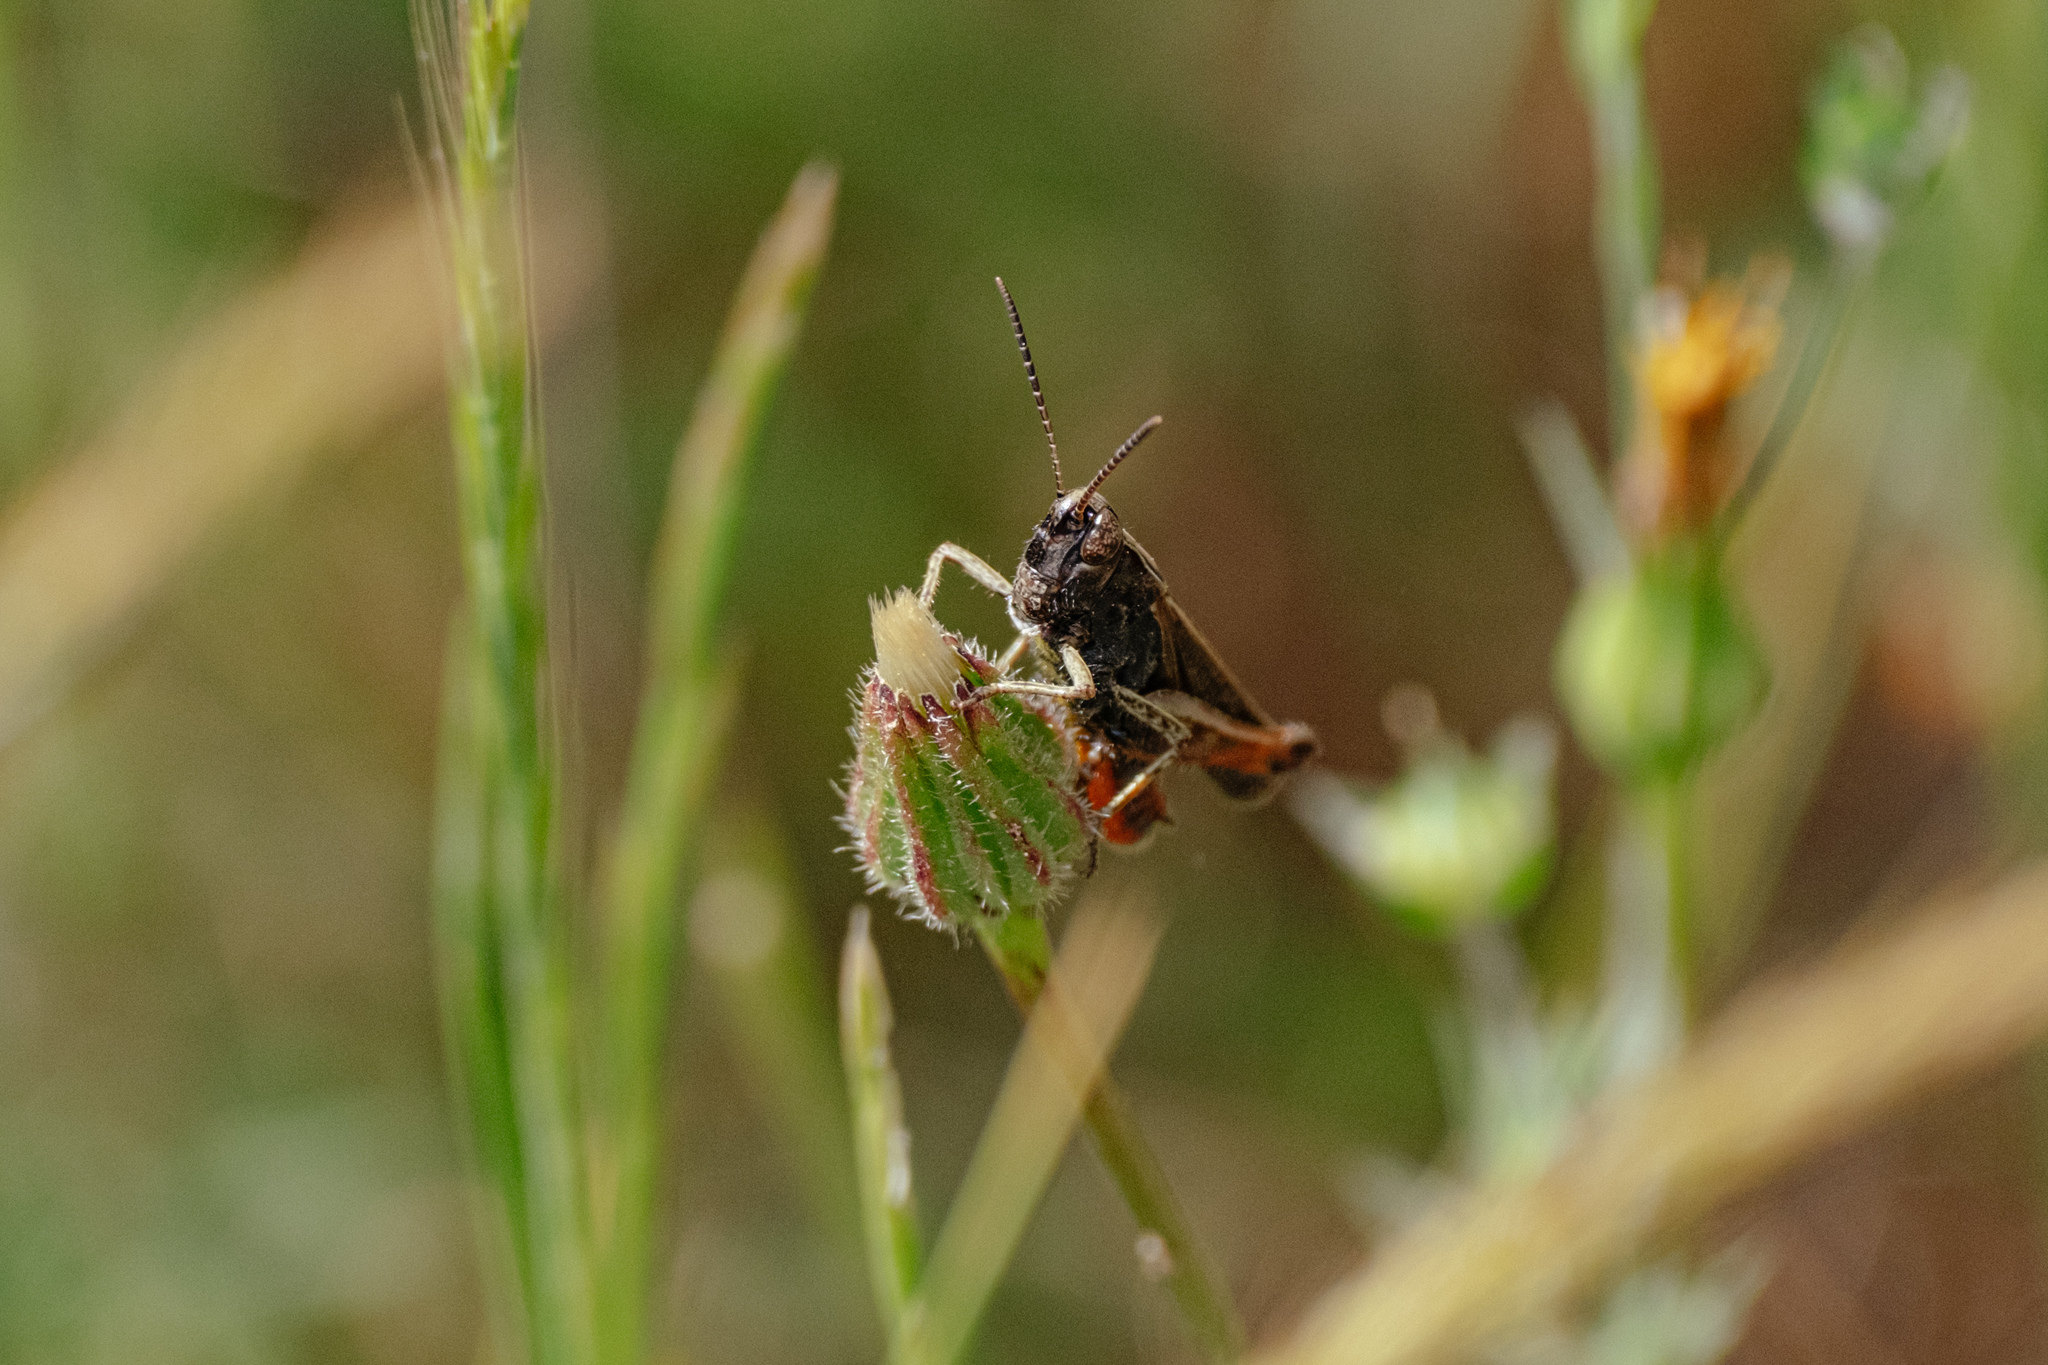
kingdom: Animalia
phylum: Arthropoda
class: Insecta
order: Orthoptera
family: Acrididae
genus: Omocestus
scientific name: Omocestus rufipes
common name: Woodland grasshopper
